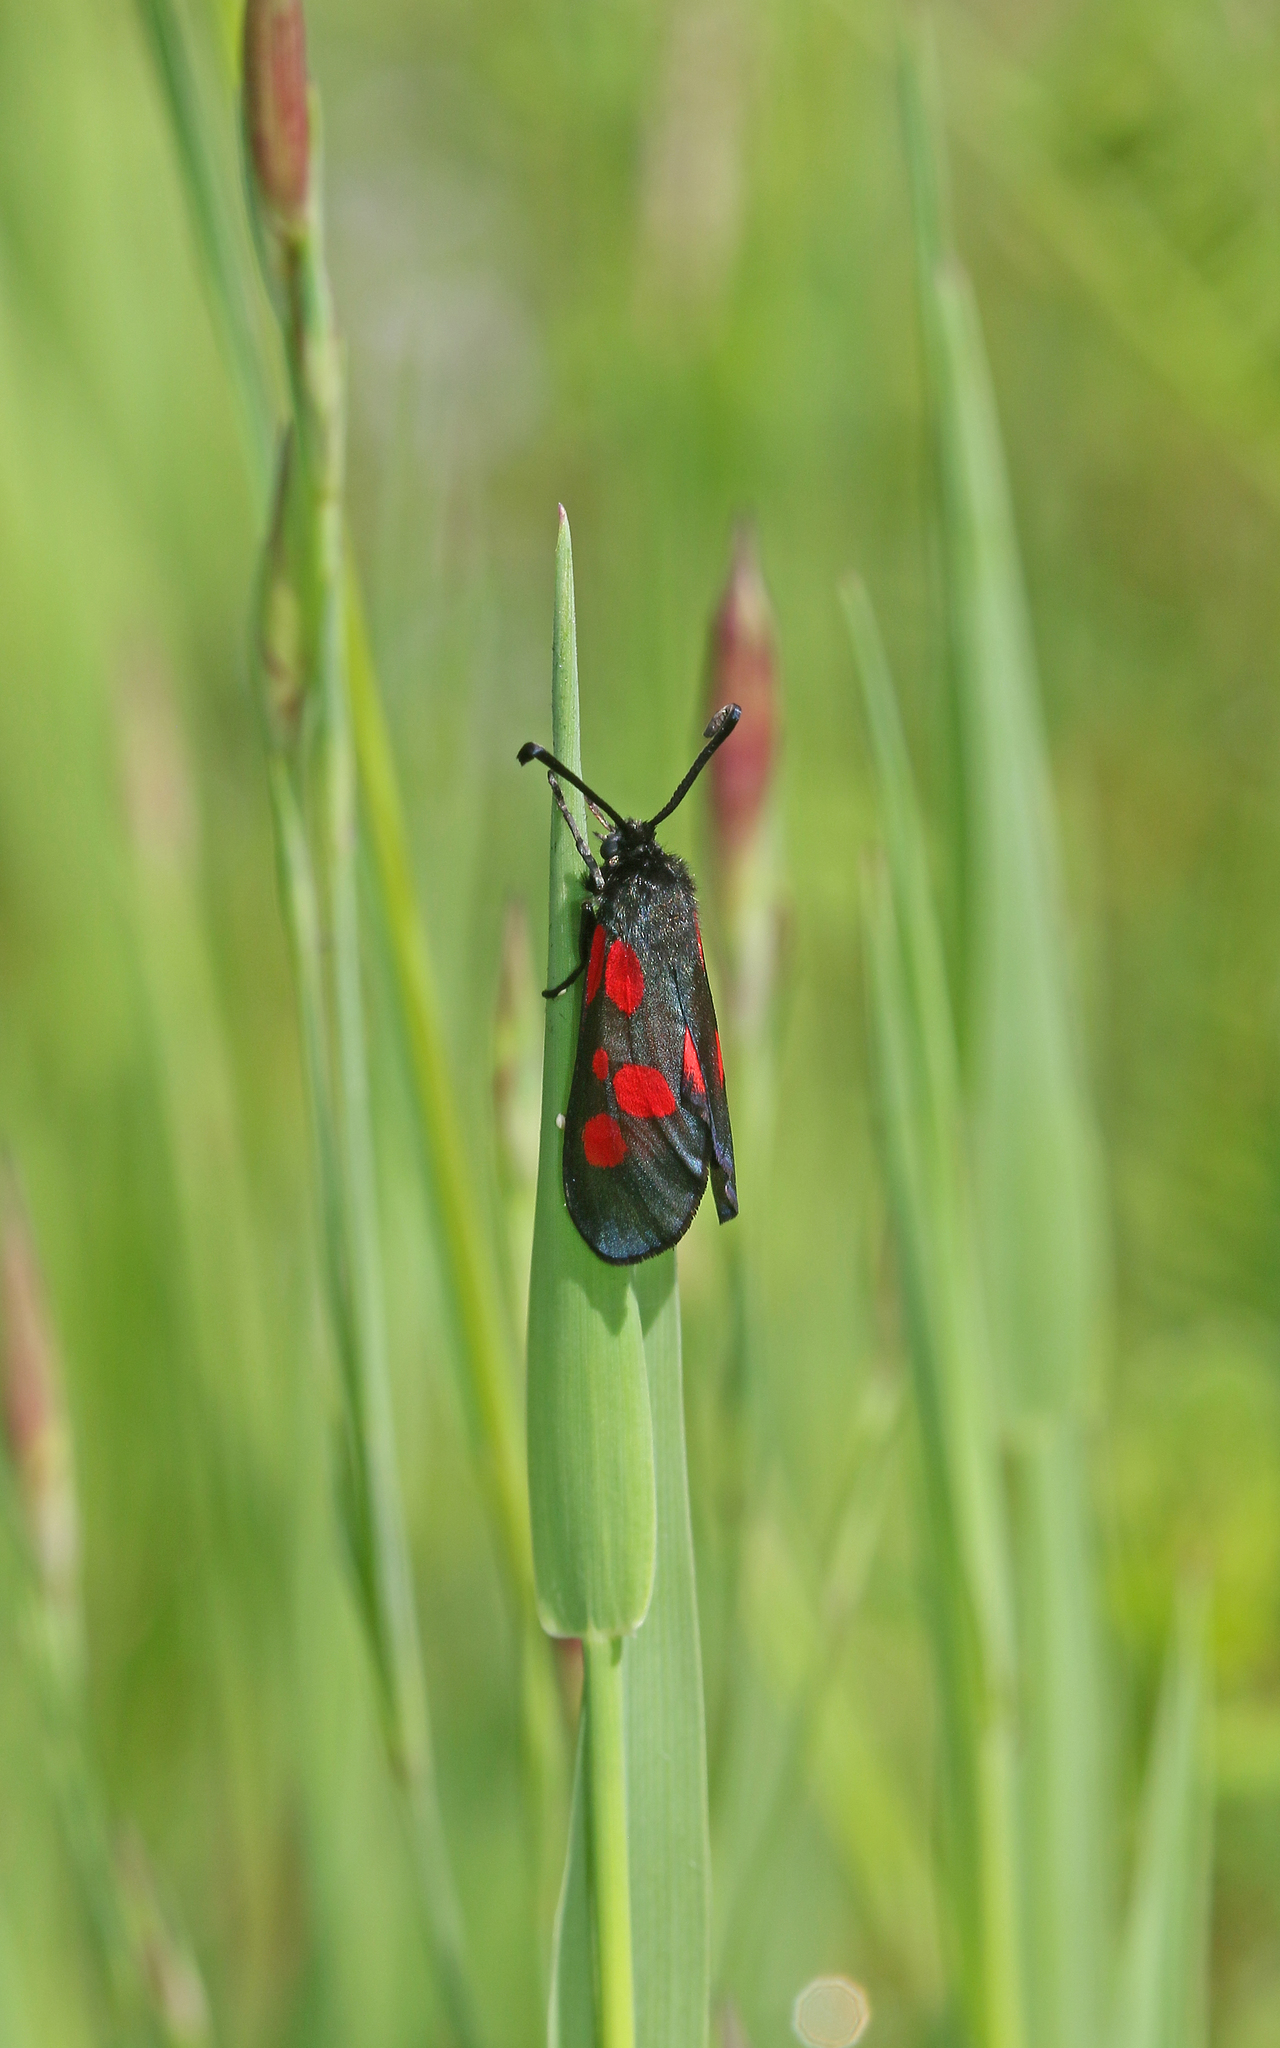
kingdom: Animalia
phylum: Arthropoda
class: Insecta
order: Lepidoptera
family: Zygaenidae
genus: Zygaena
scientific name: Zygaena viciae
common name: New forest burnet
